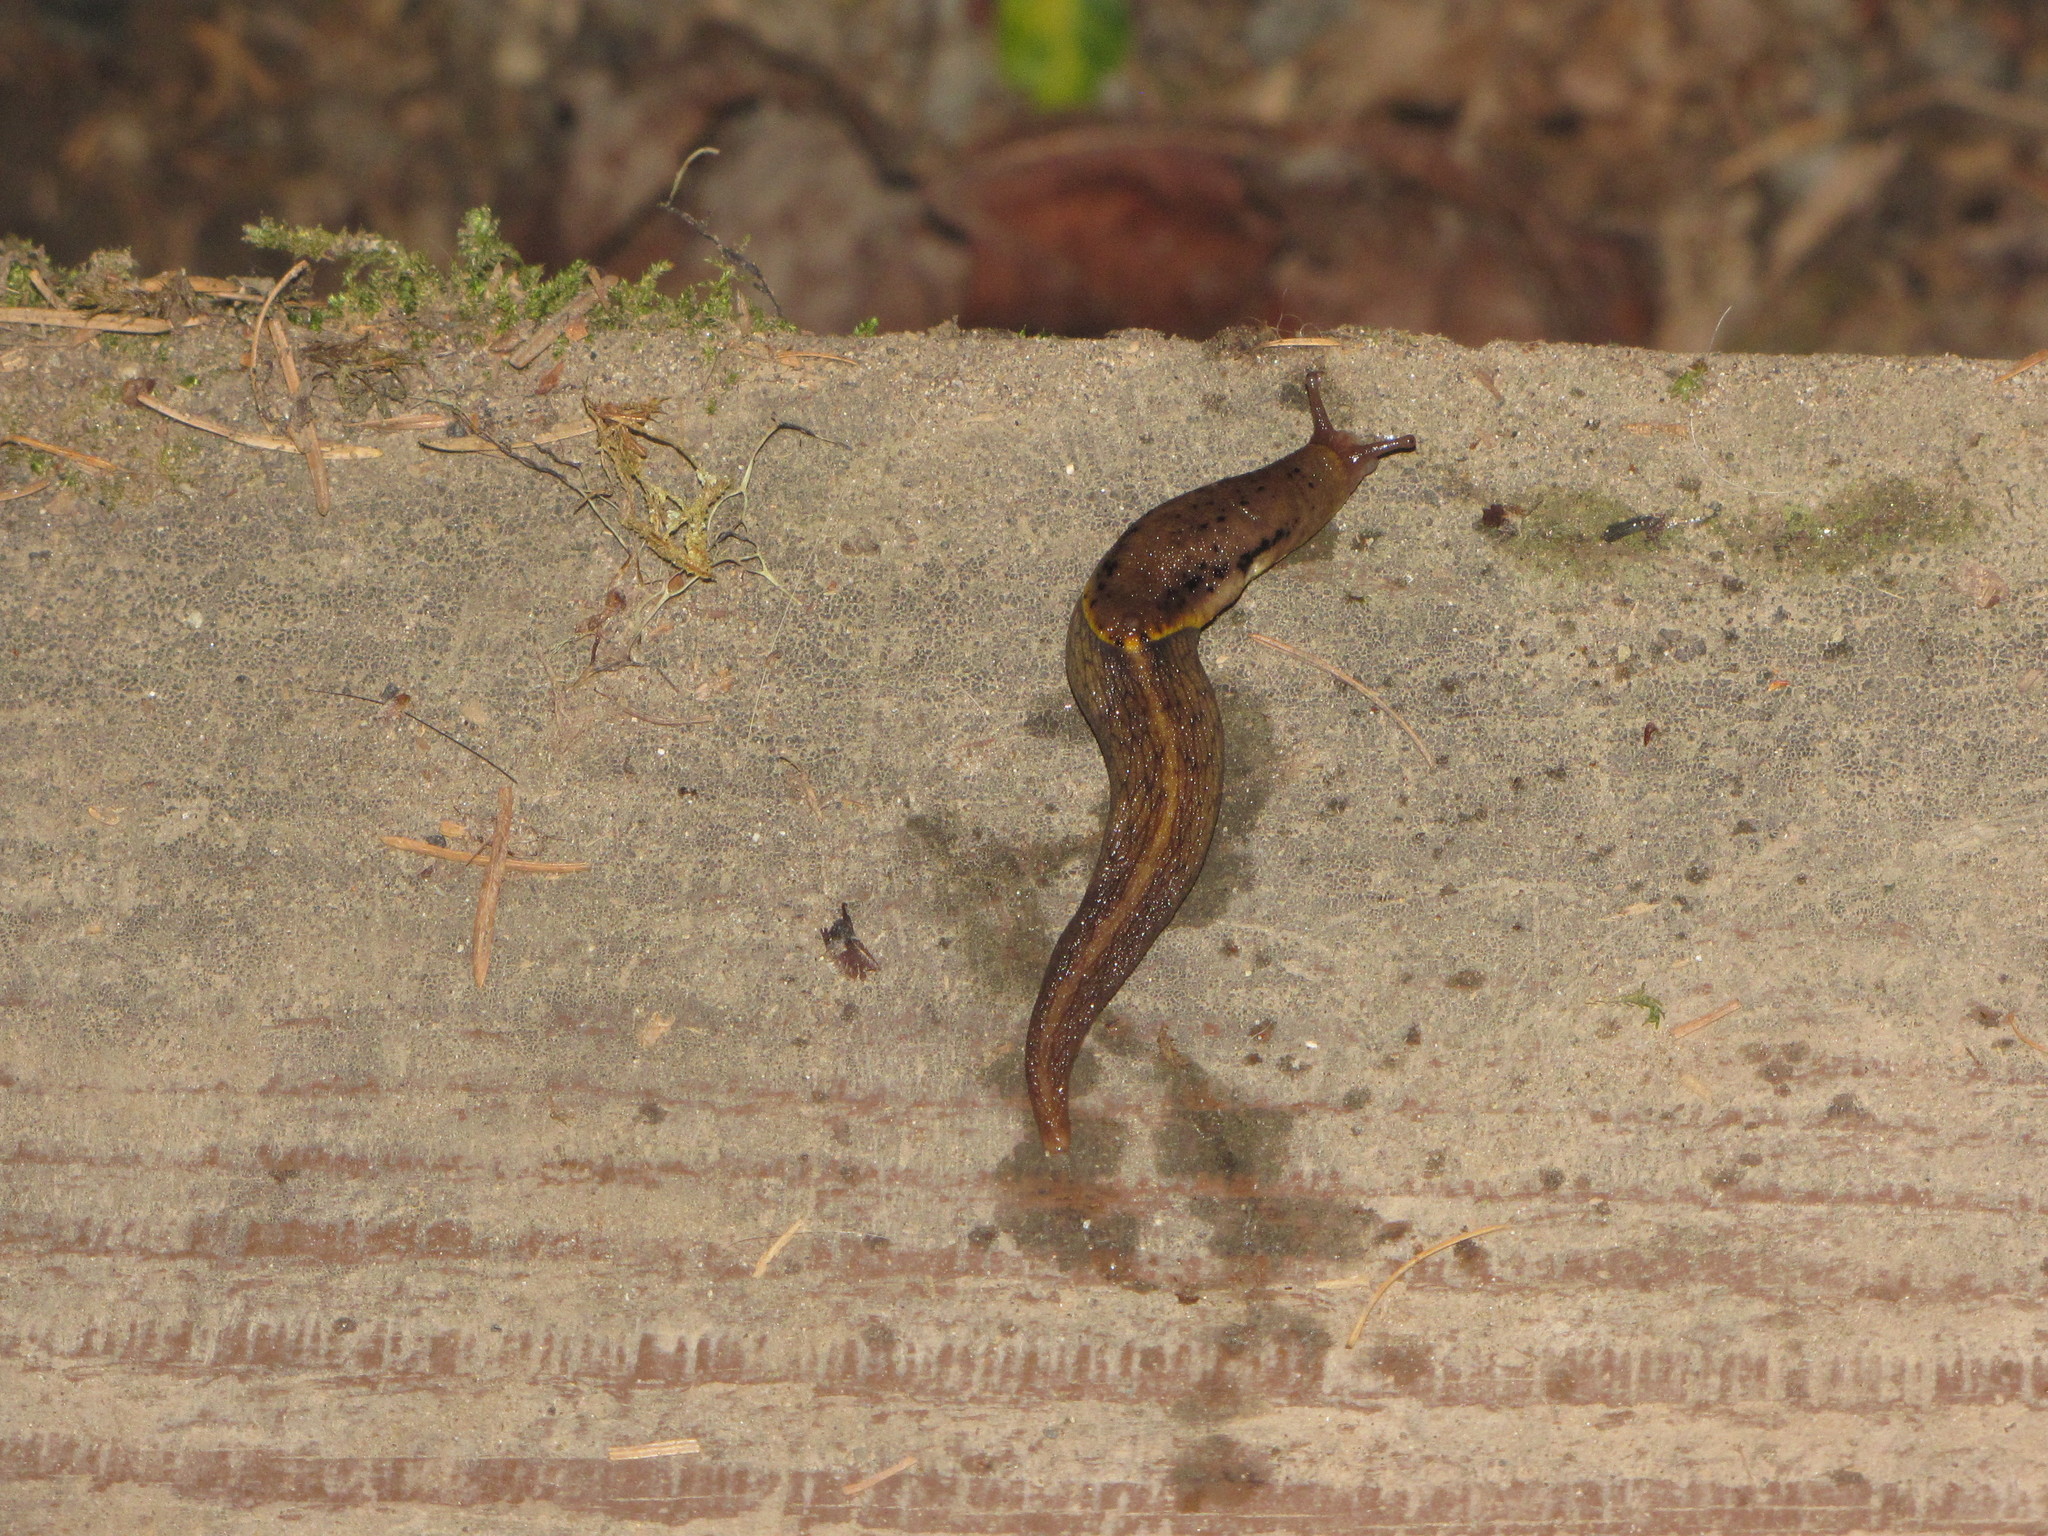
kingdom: Animalia
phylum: Mollusca
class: Gastropoda
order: Stylommatophora
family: Ariolimacidae
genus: Prophysaon
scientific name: Prophysaon foliolatum
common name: Yellow-bordered taildropper
